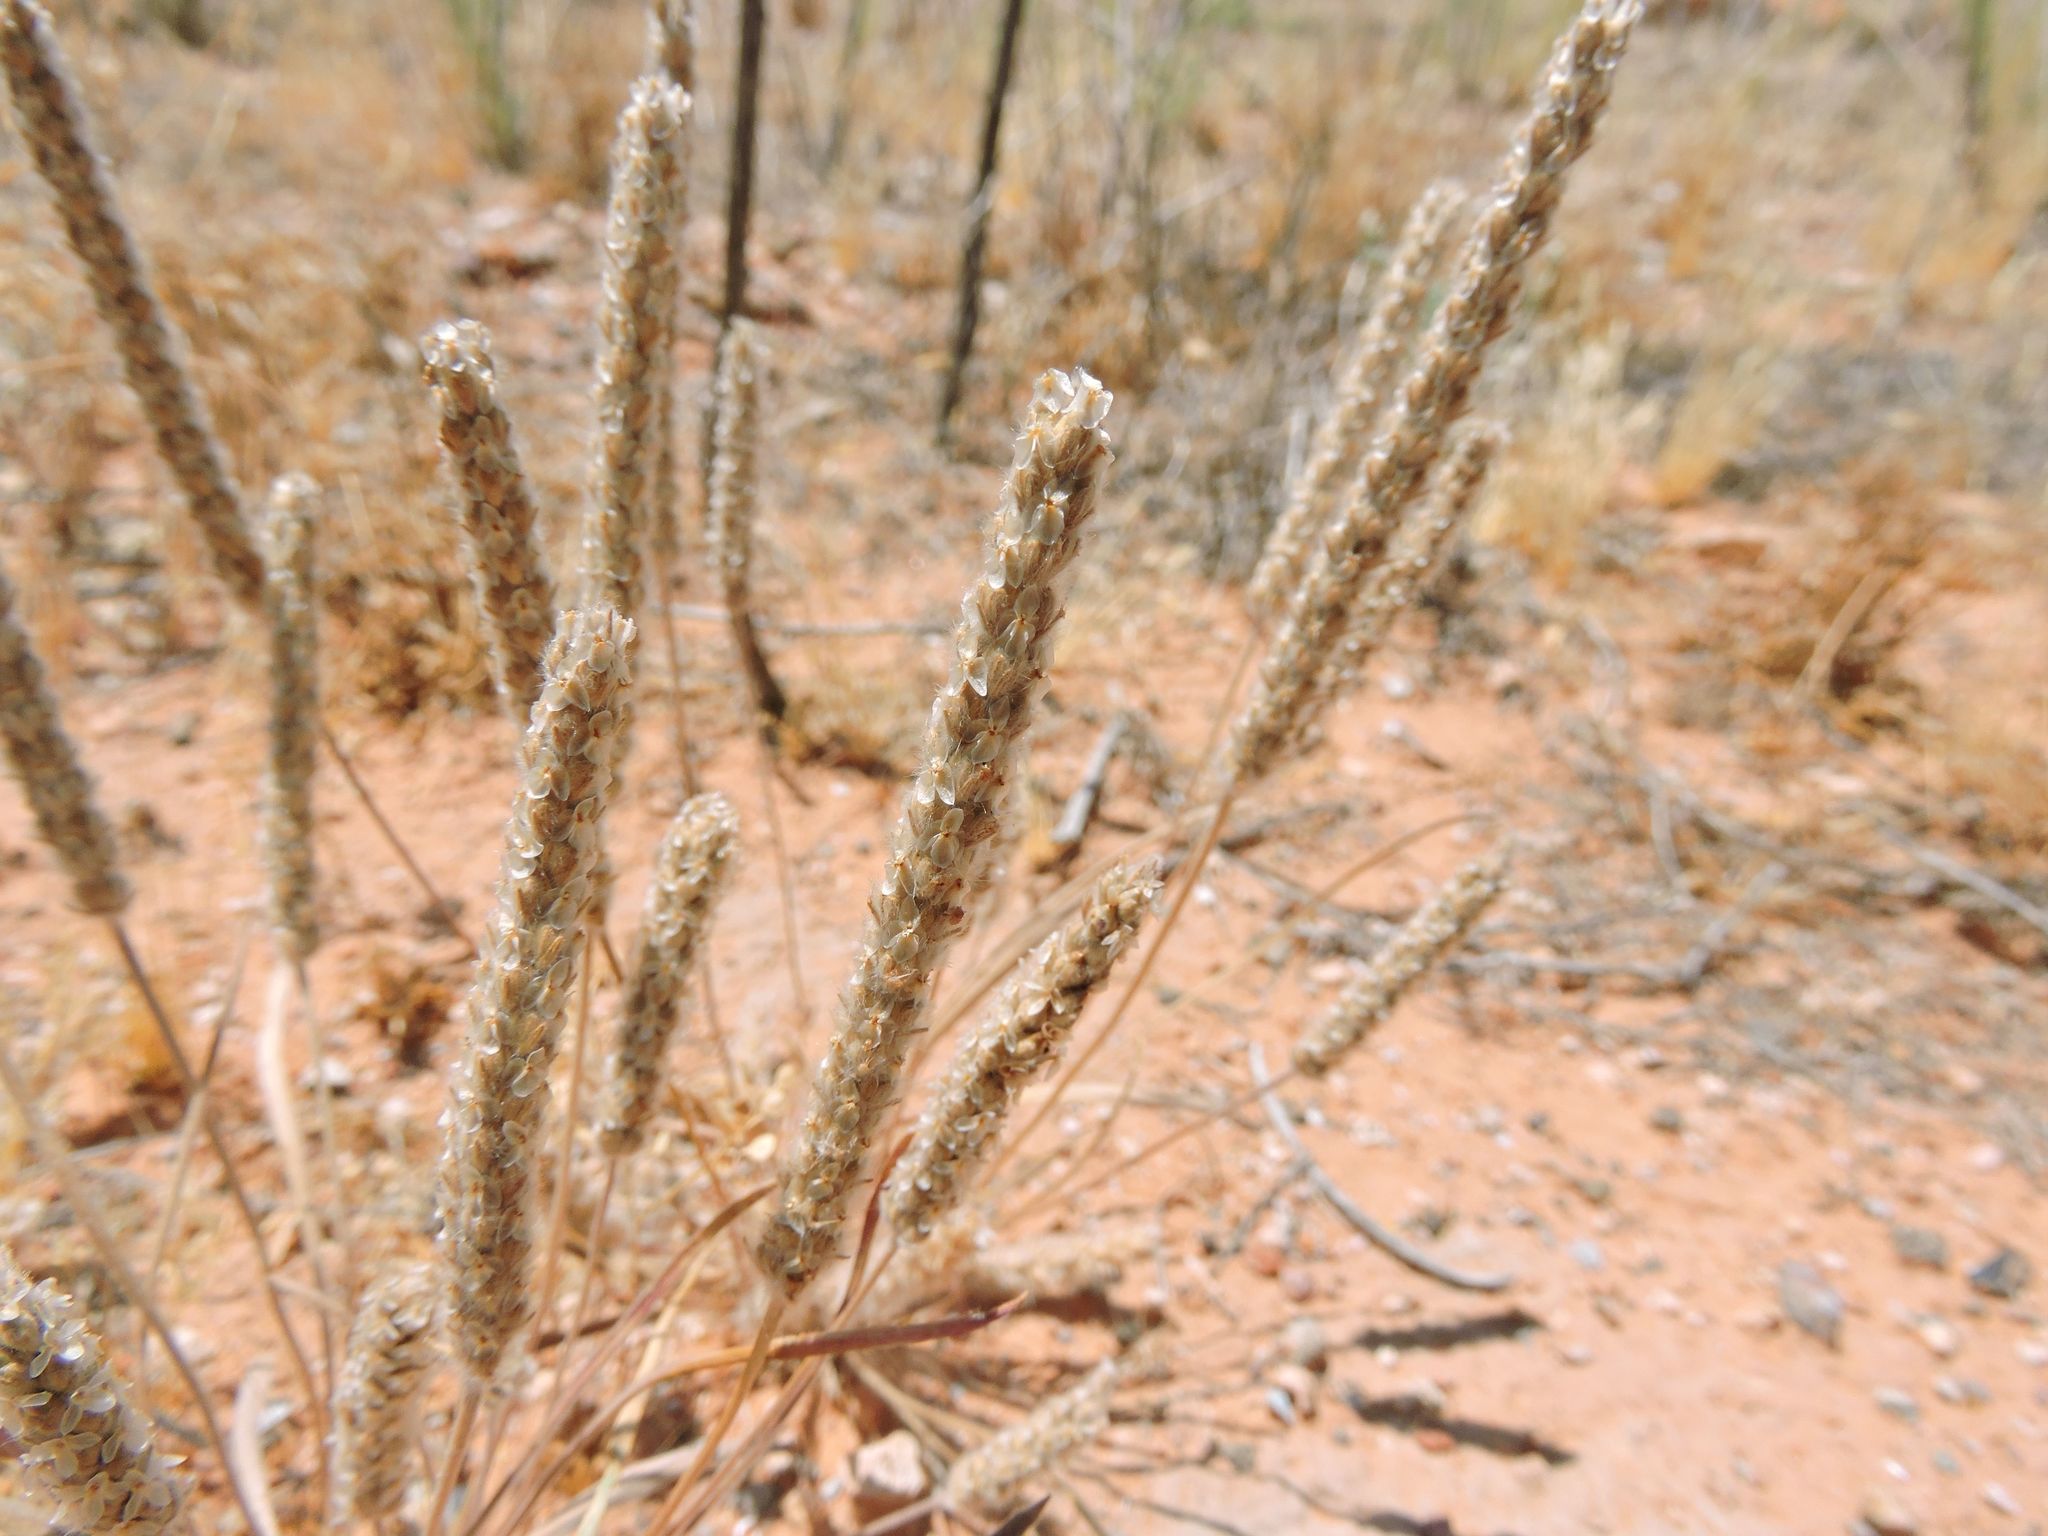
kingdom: Plantae
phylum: Tracheophyta
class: Magnoliopsida
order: Lamiales
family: Plantaginaceae
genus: Plantago
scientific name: Plantago patagonica
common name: Patagonia indian-wheat
